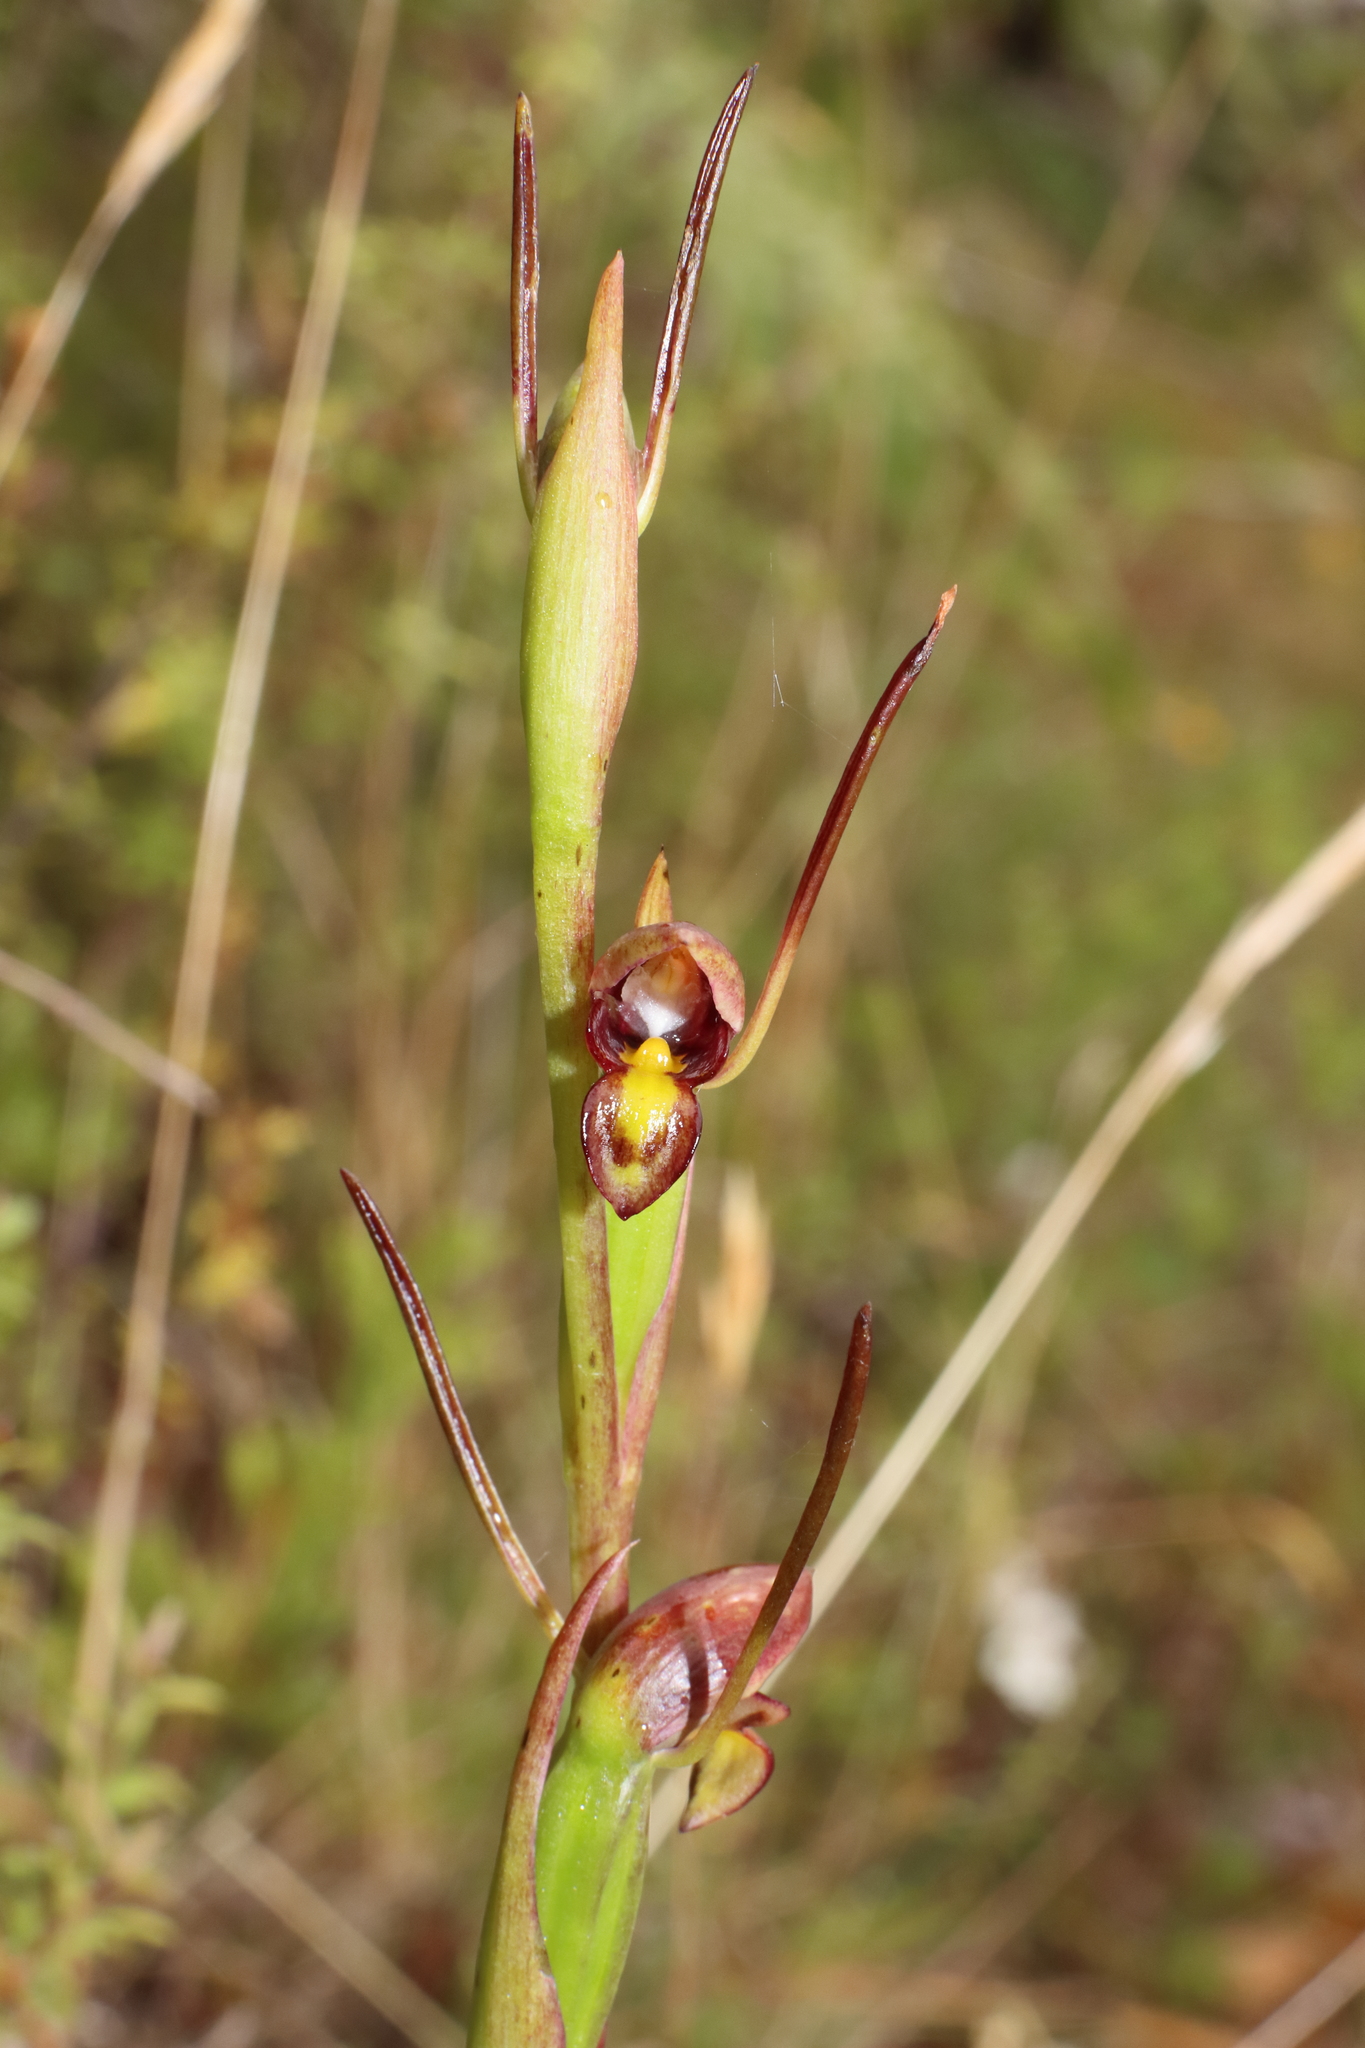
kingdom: Plantae
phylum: Tracheophyta
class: Liliopsida
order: Asparagales
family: Orchidaceae
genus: Orthoceras
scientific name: Orthoceras novae-zeelandiae
